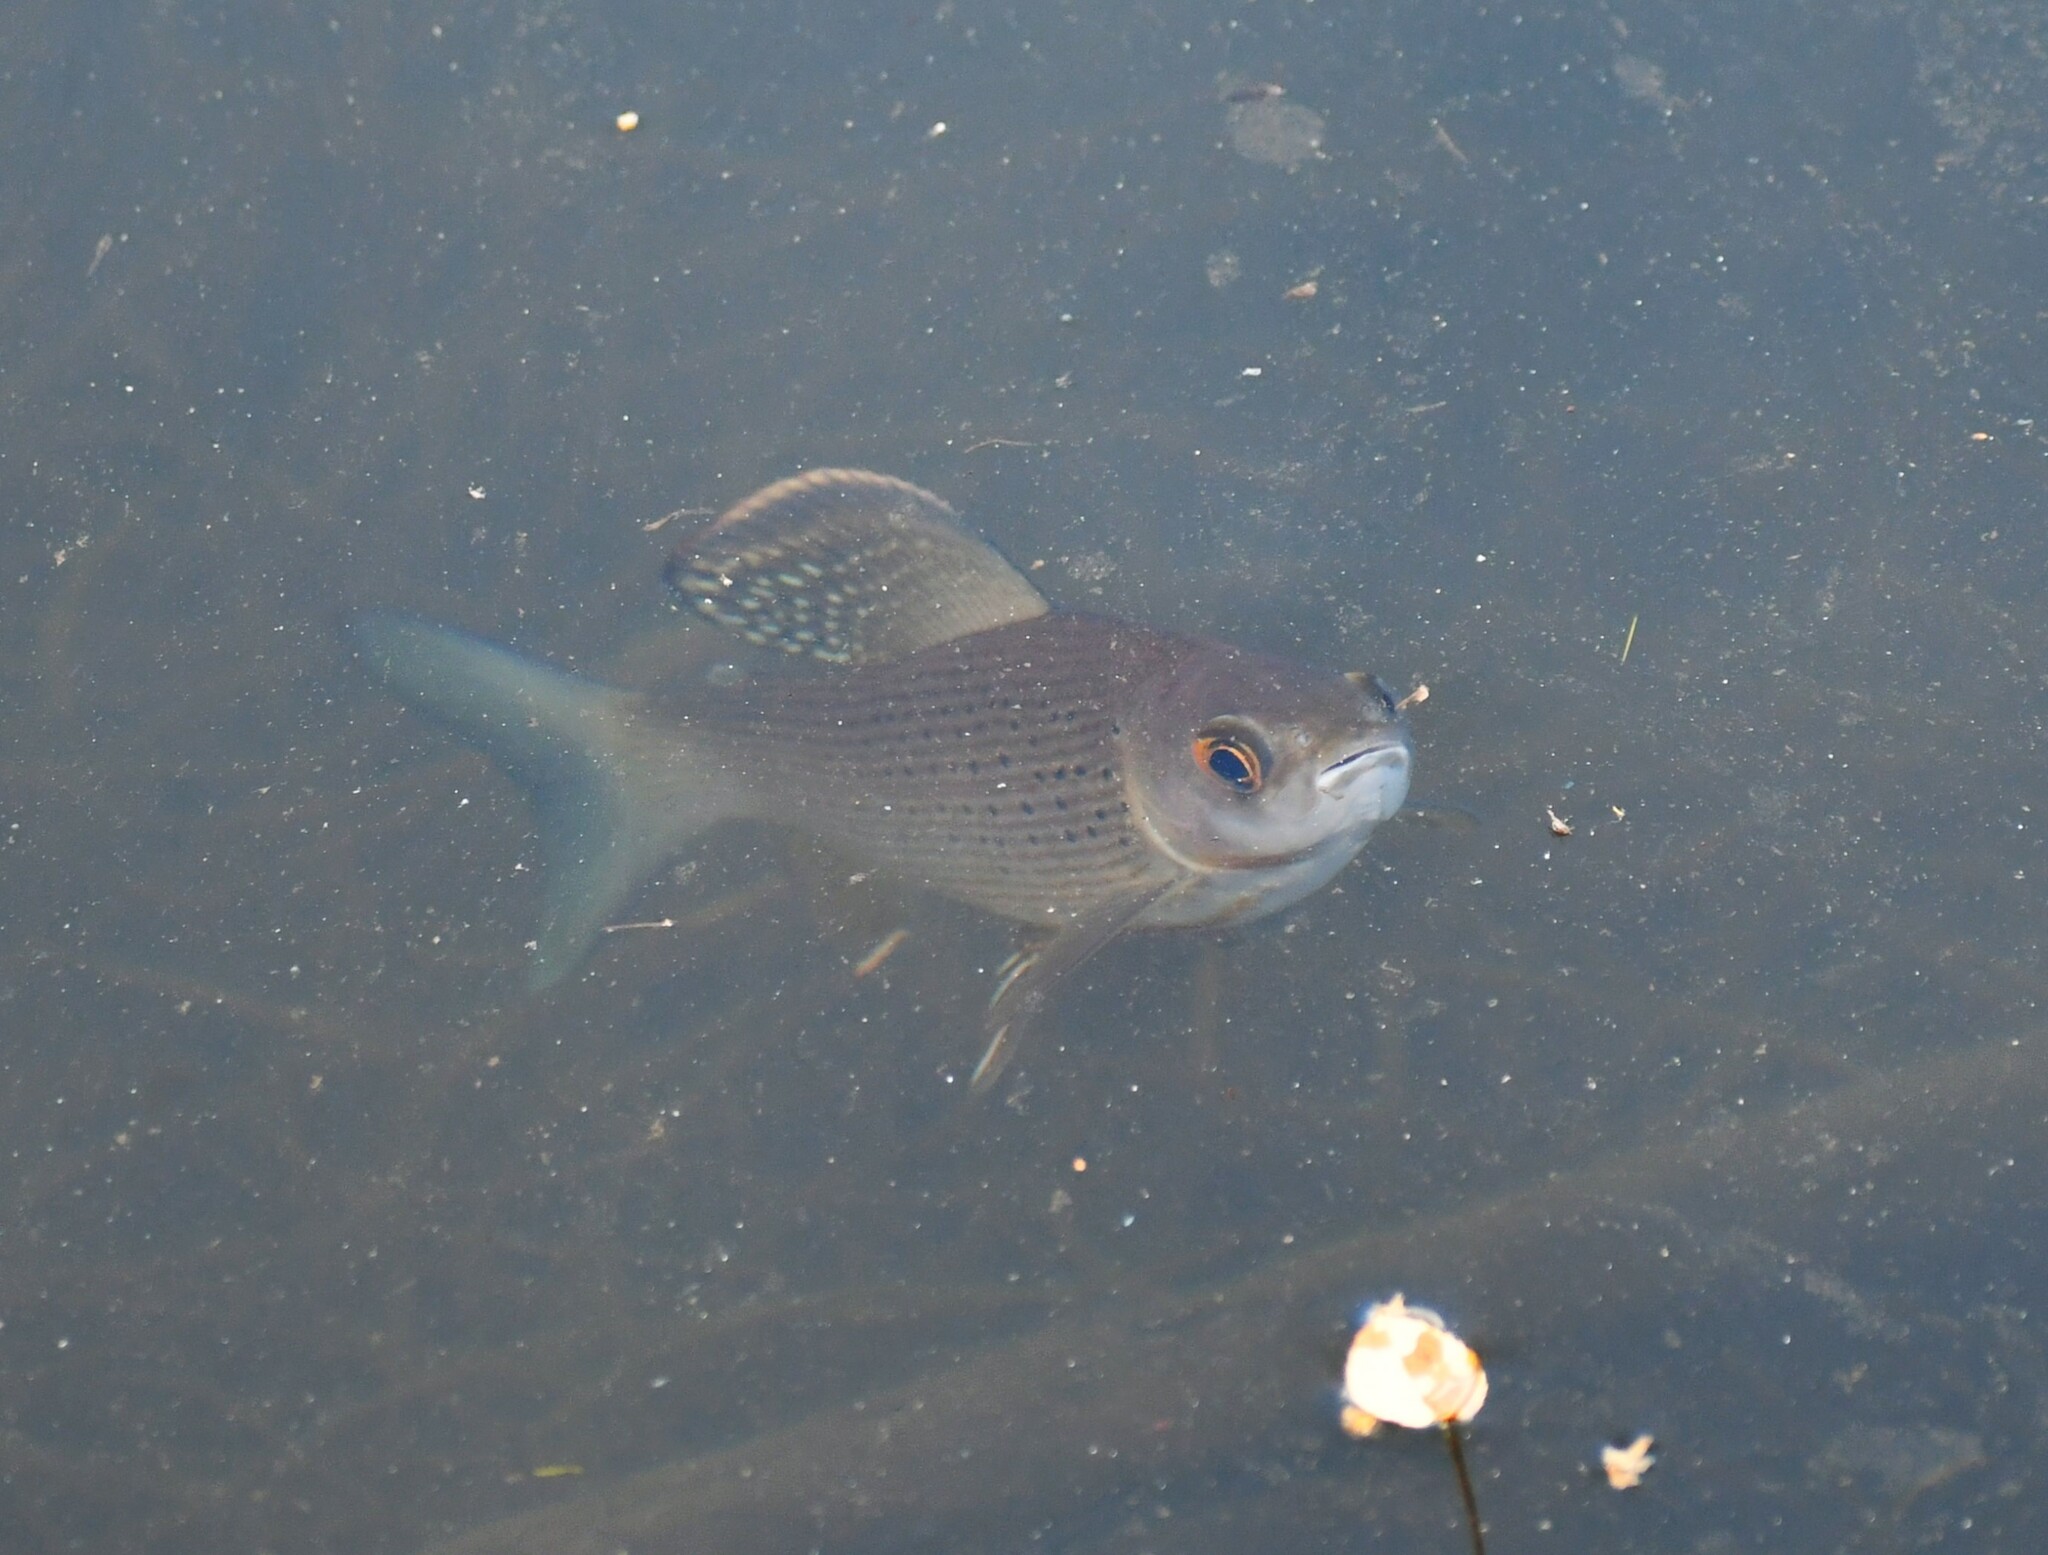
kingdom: Animalia
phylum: Chordata
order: Salmoniformes
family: Salmonidae
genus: Thymallus
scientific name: Thymallus arcticus
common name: Arctic grayling
